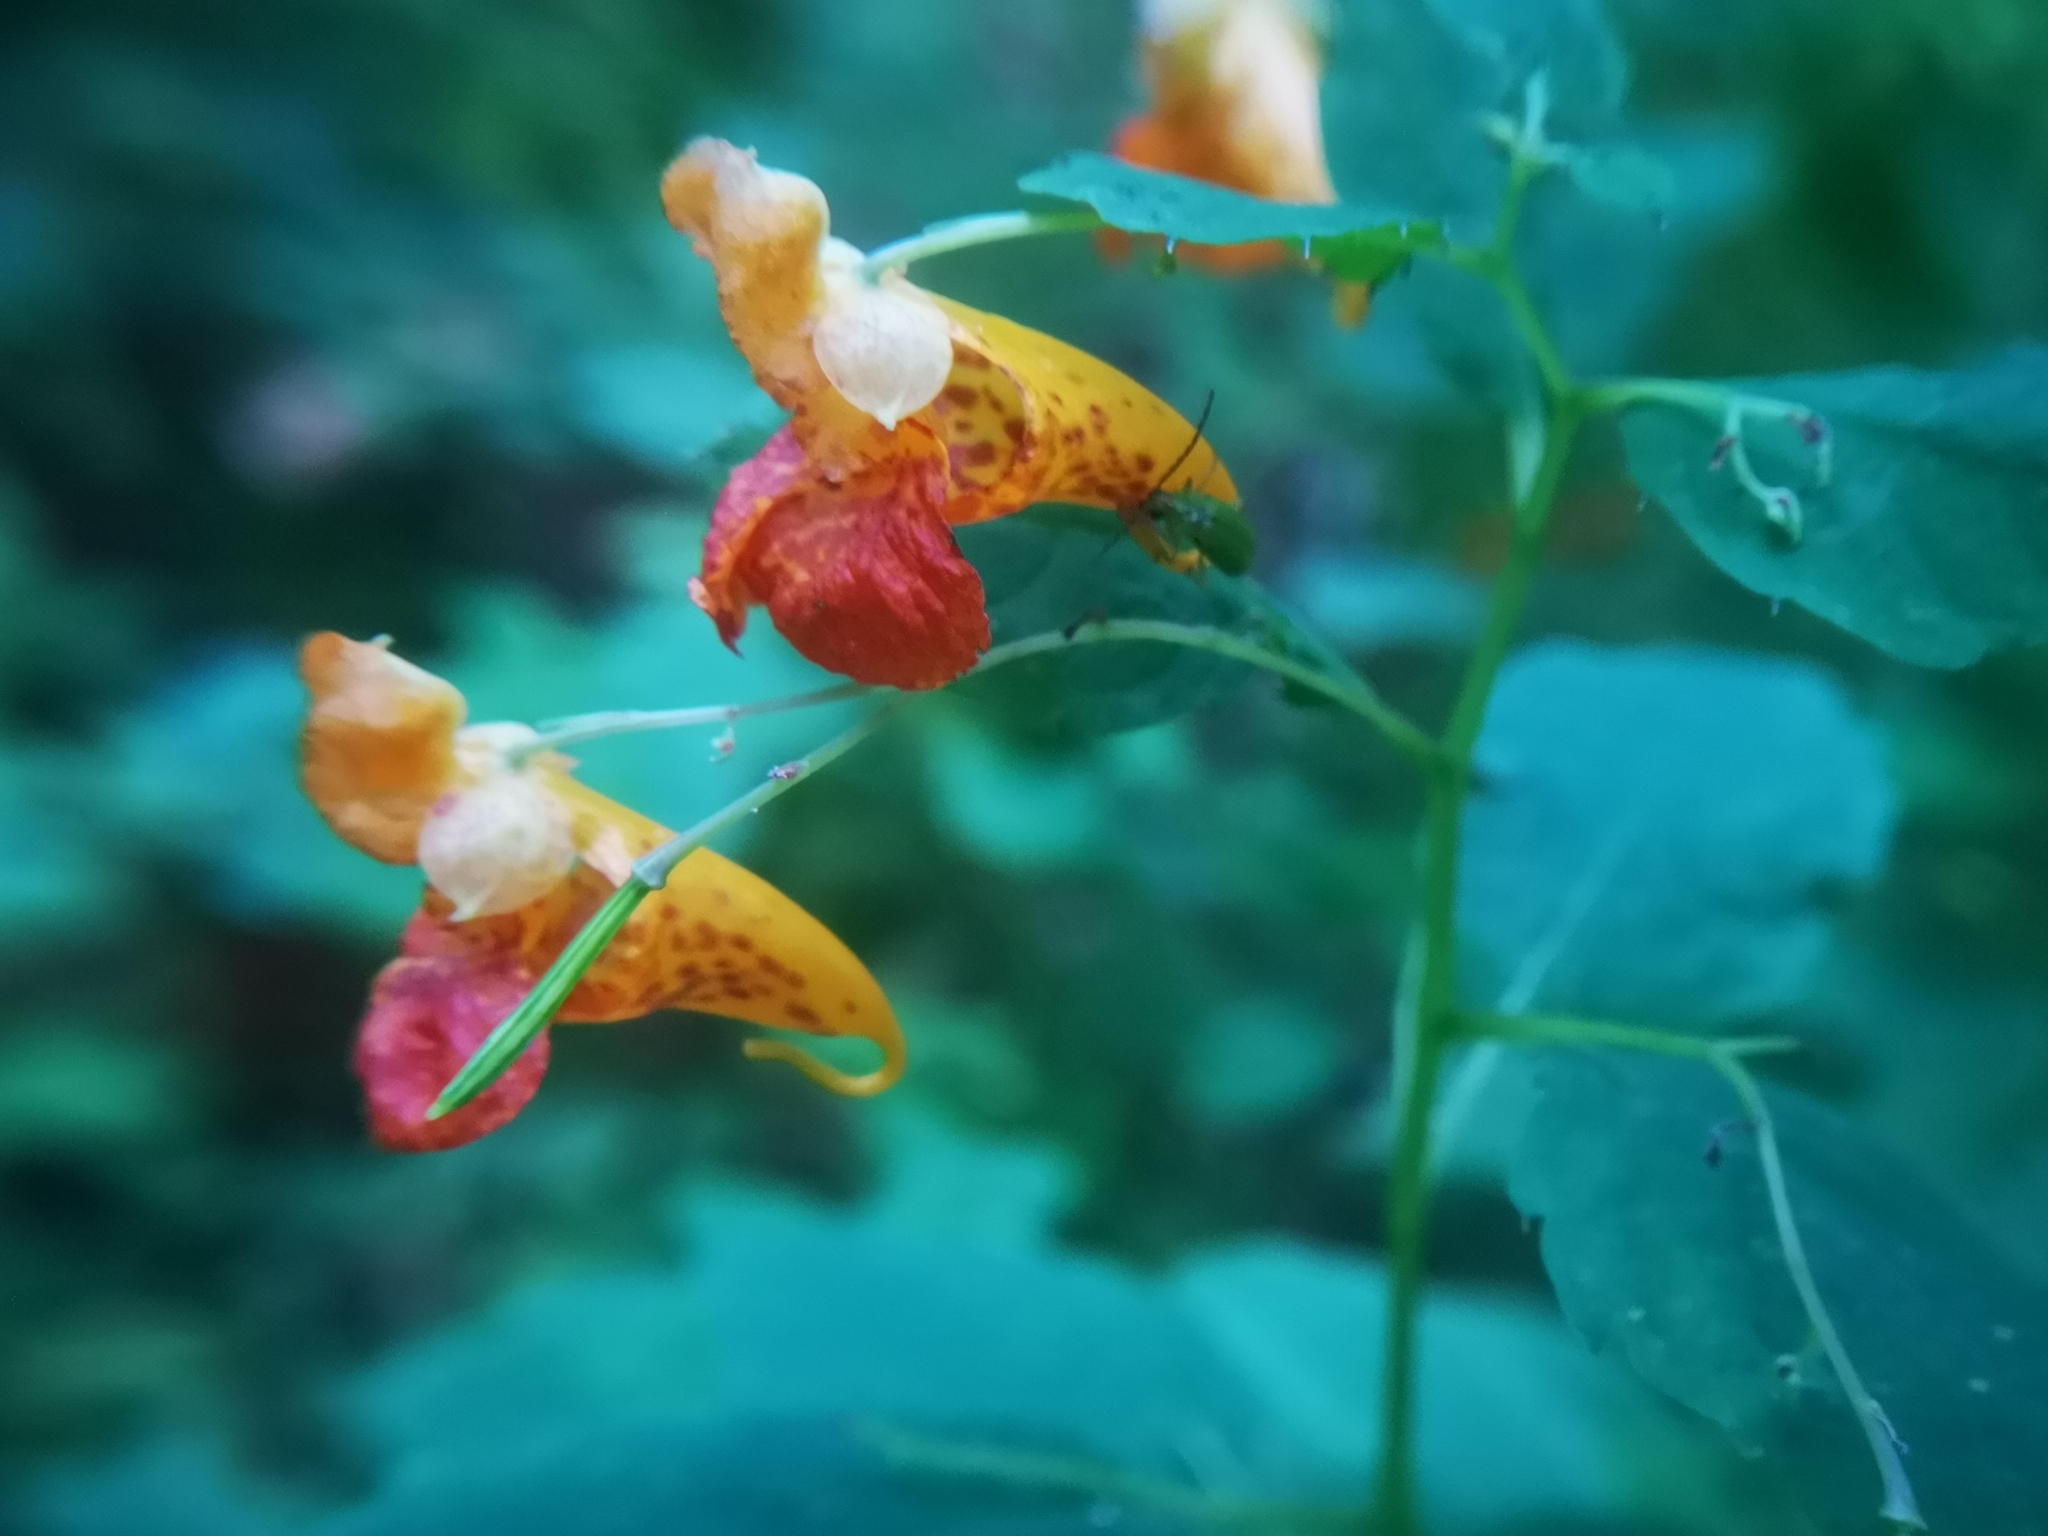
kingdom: Plantae
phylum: Tracheophyta
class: Magnoliopsida
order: Ericales
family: Balsaminaceae
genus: Impatiens
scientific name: Impatiens capensis
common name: Orange balsam
